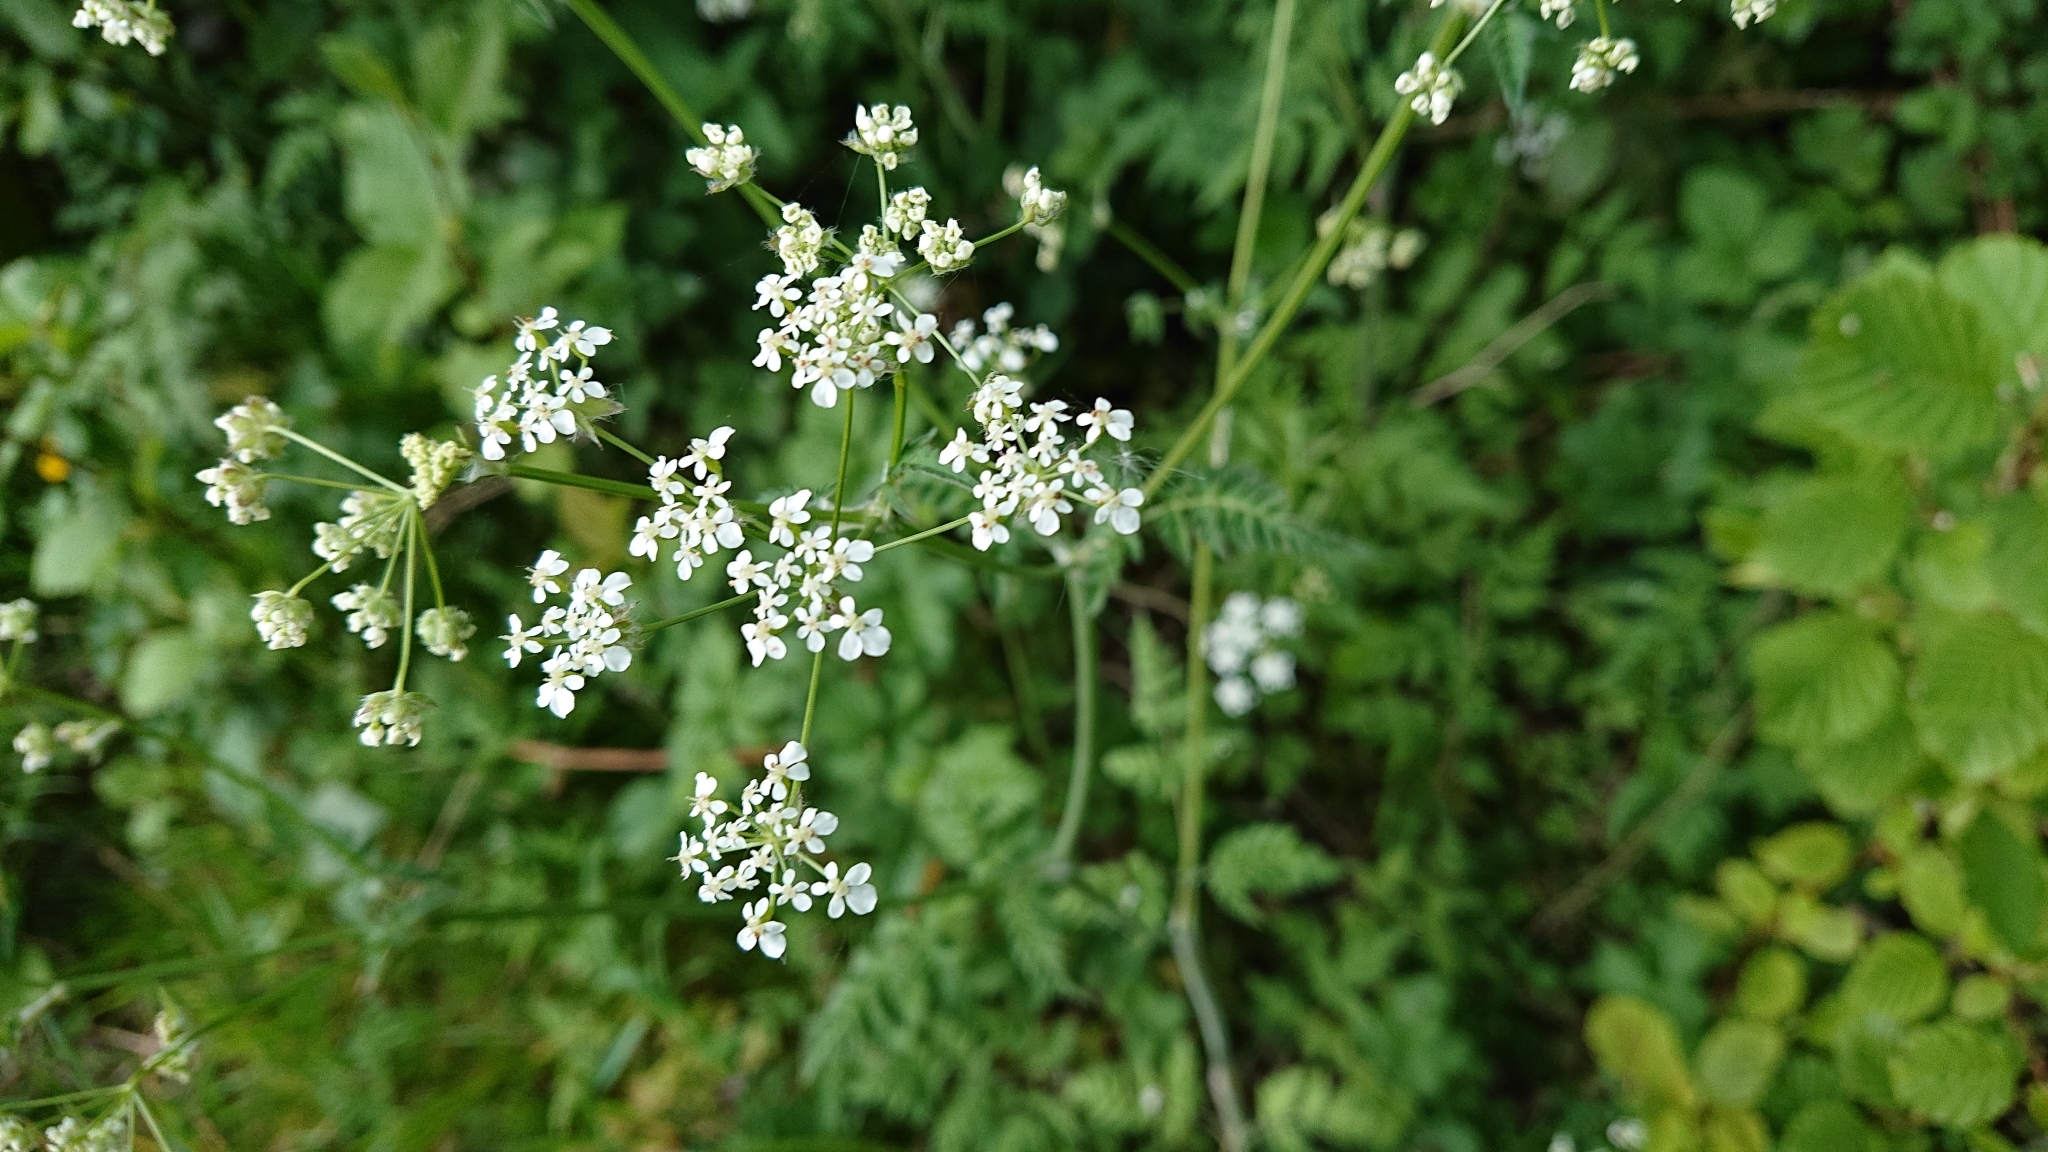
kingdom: Plantae
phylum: Tracheophyta
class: Magnoliopsida
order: Apiales
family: Apiaceae
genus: Anthriscus
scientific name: Anthriscus sylvestris
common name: Cow parsley
